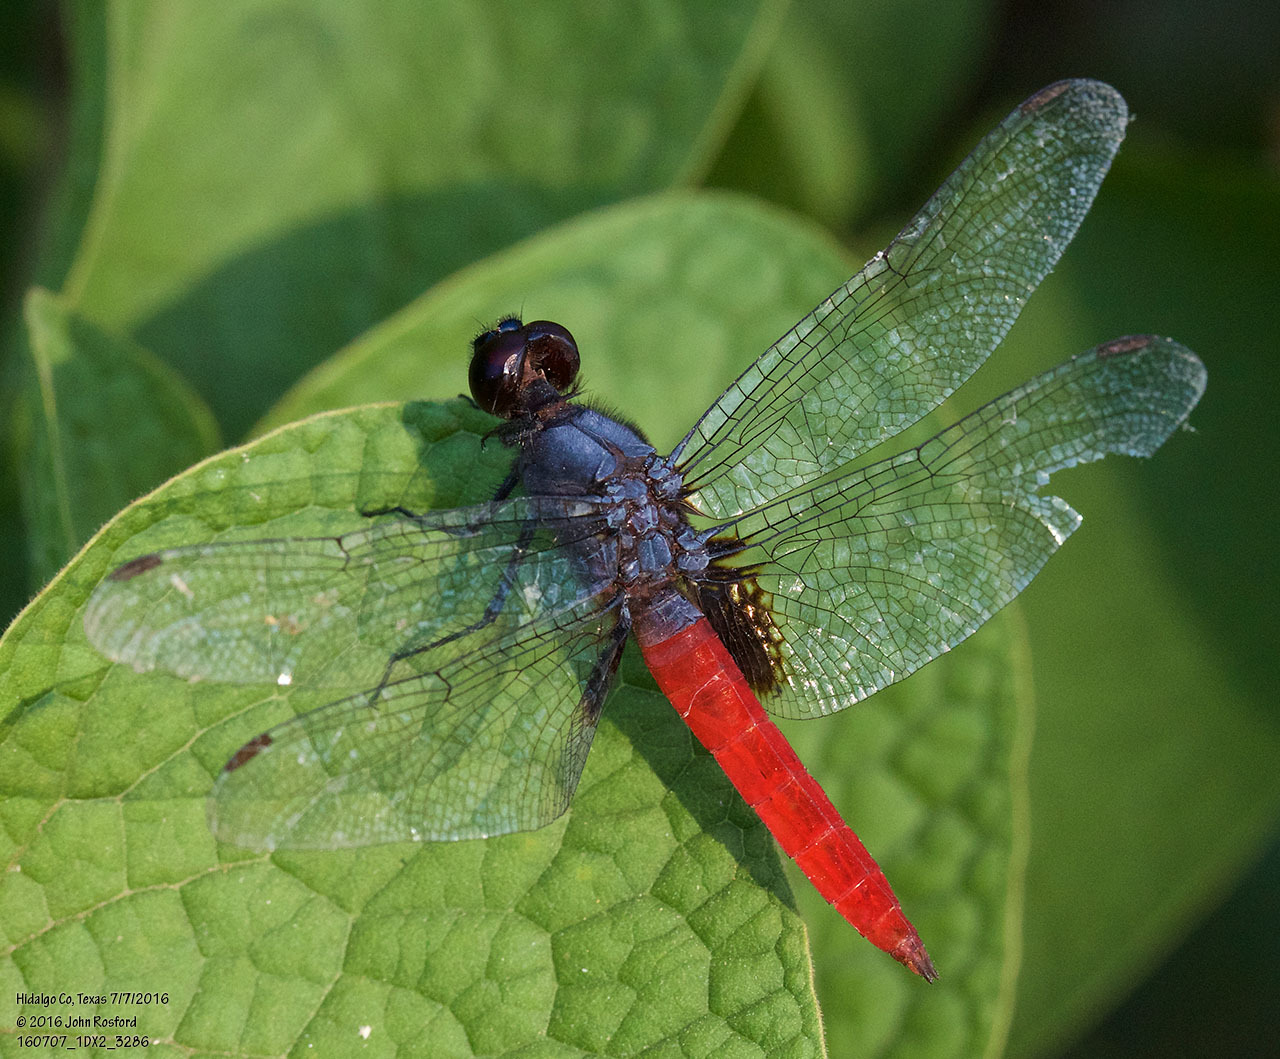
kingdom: Animalia
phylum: Arthropoda
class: Insecta
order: Odonata
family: Libellulidae
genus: Planiplax
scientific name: Planiplax sanguiniventris
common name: Mexican scarlet-tail
